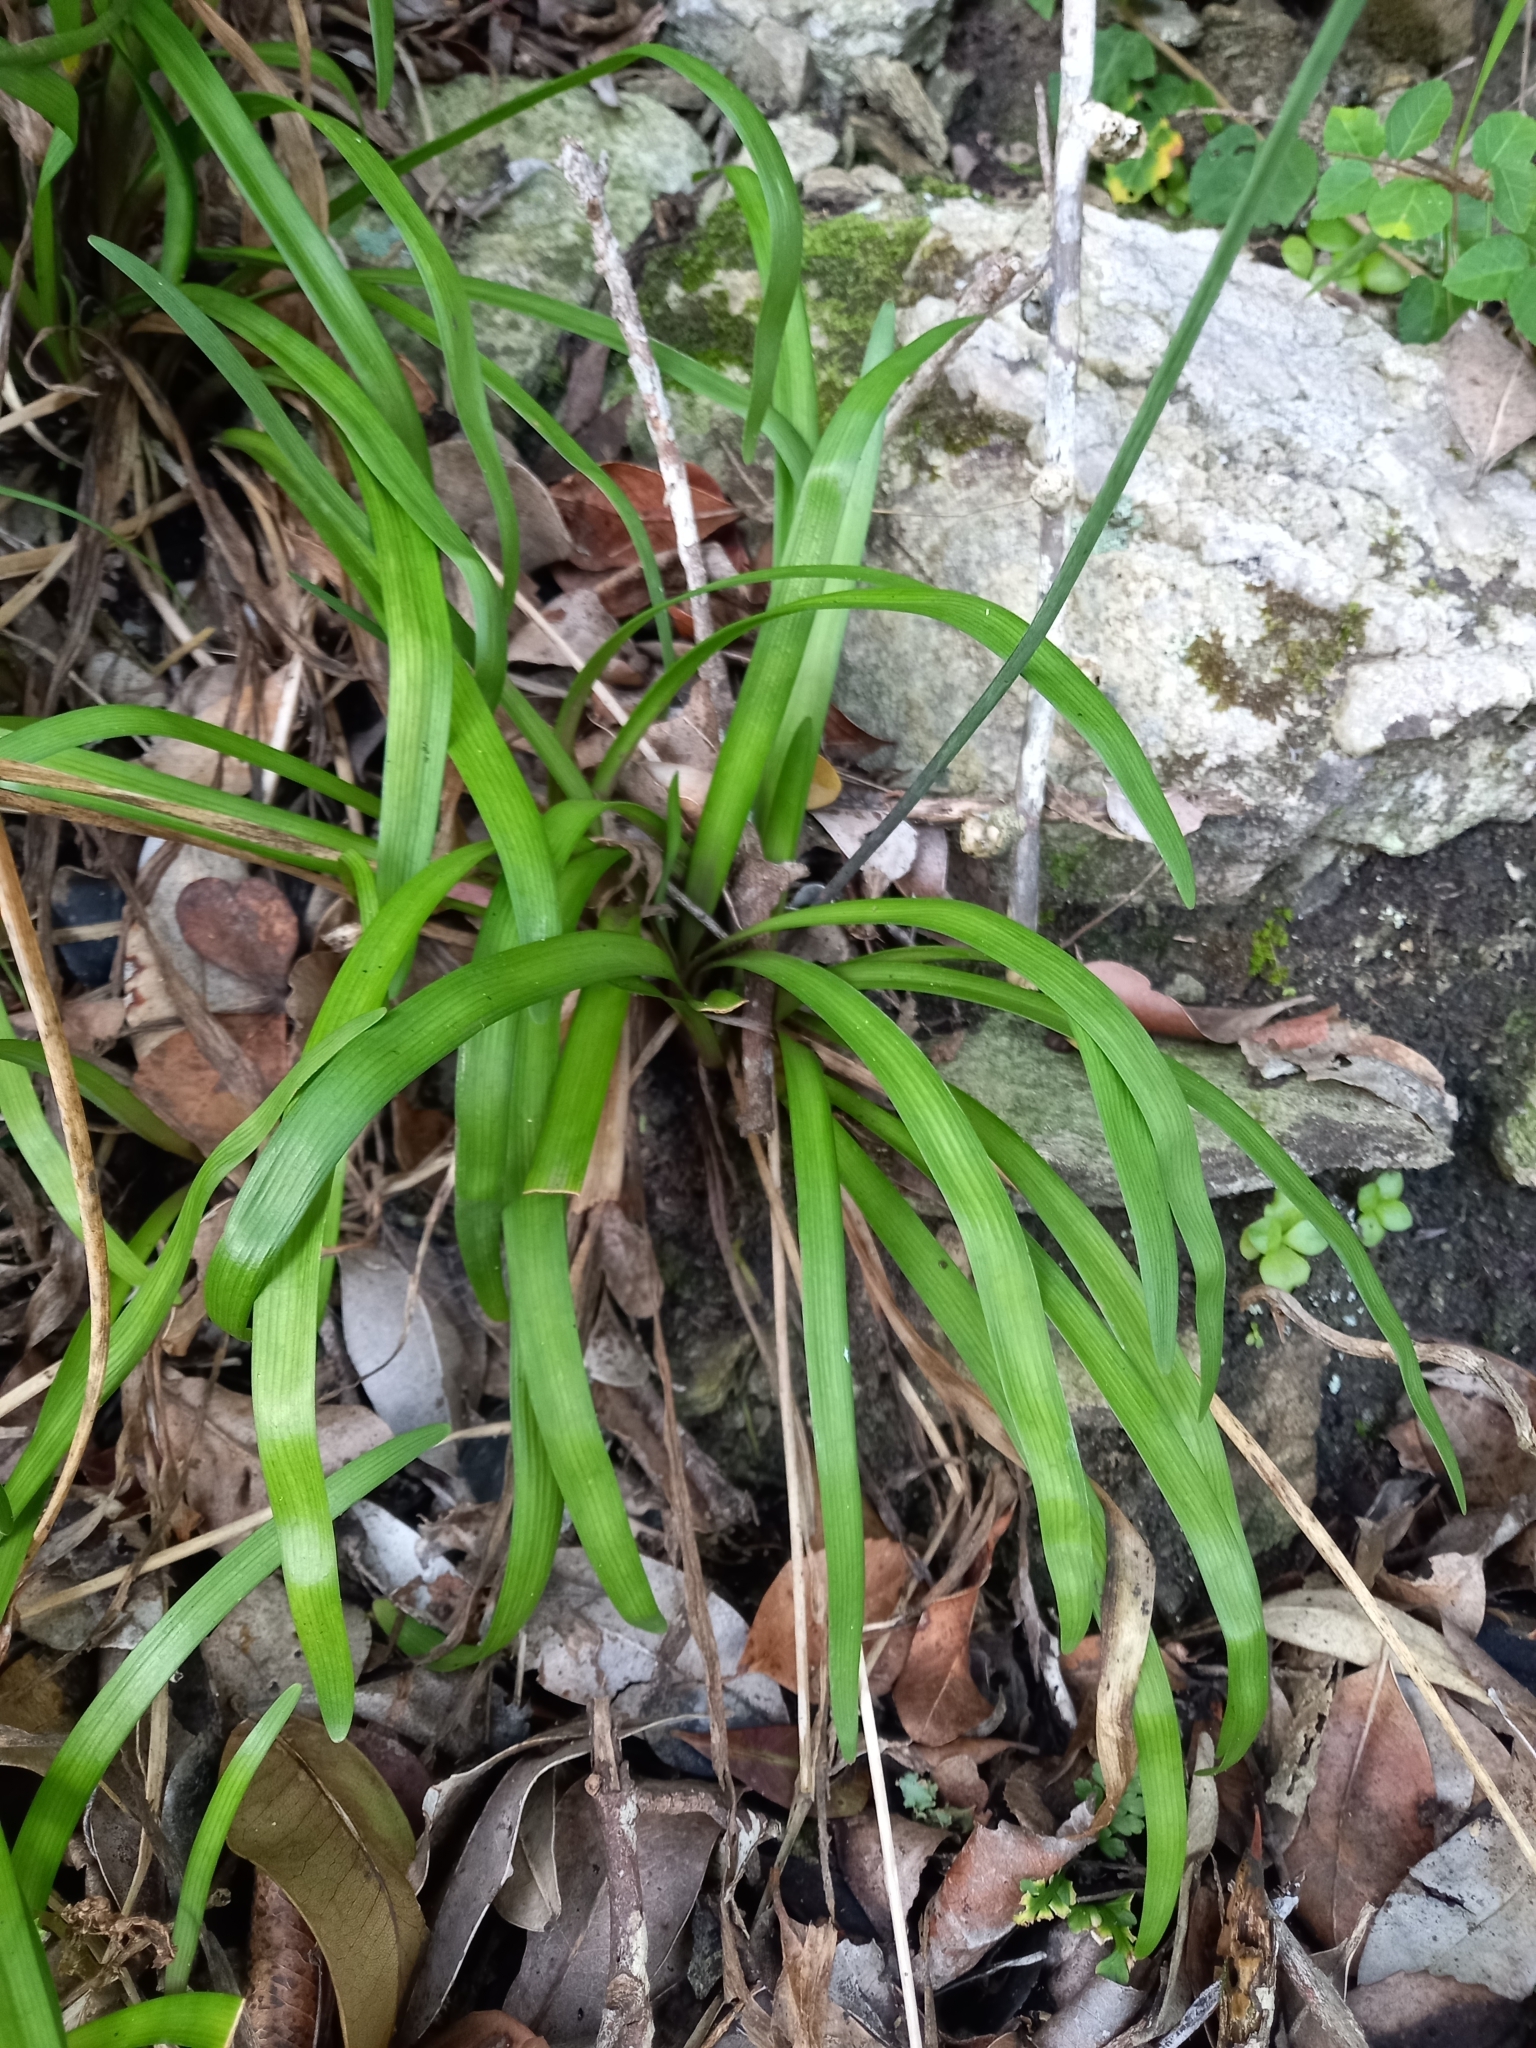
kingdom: Plantae
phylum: Tracheophyta
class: Liliopsida
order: Asparagales
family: Amaryllidaceae
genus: Tulbaghia
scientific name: Tulbaghia maritima
